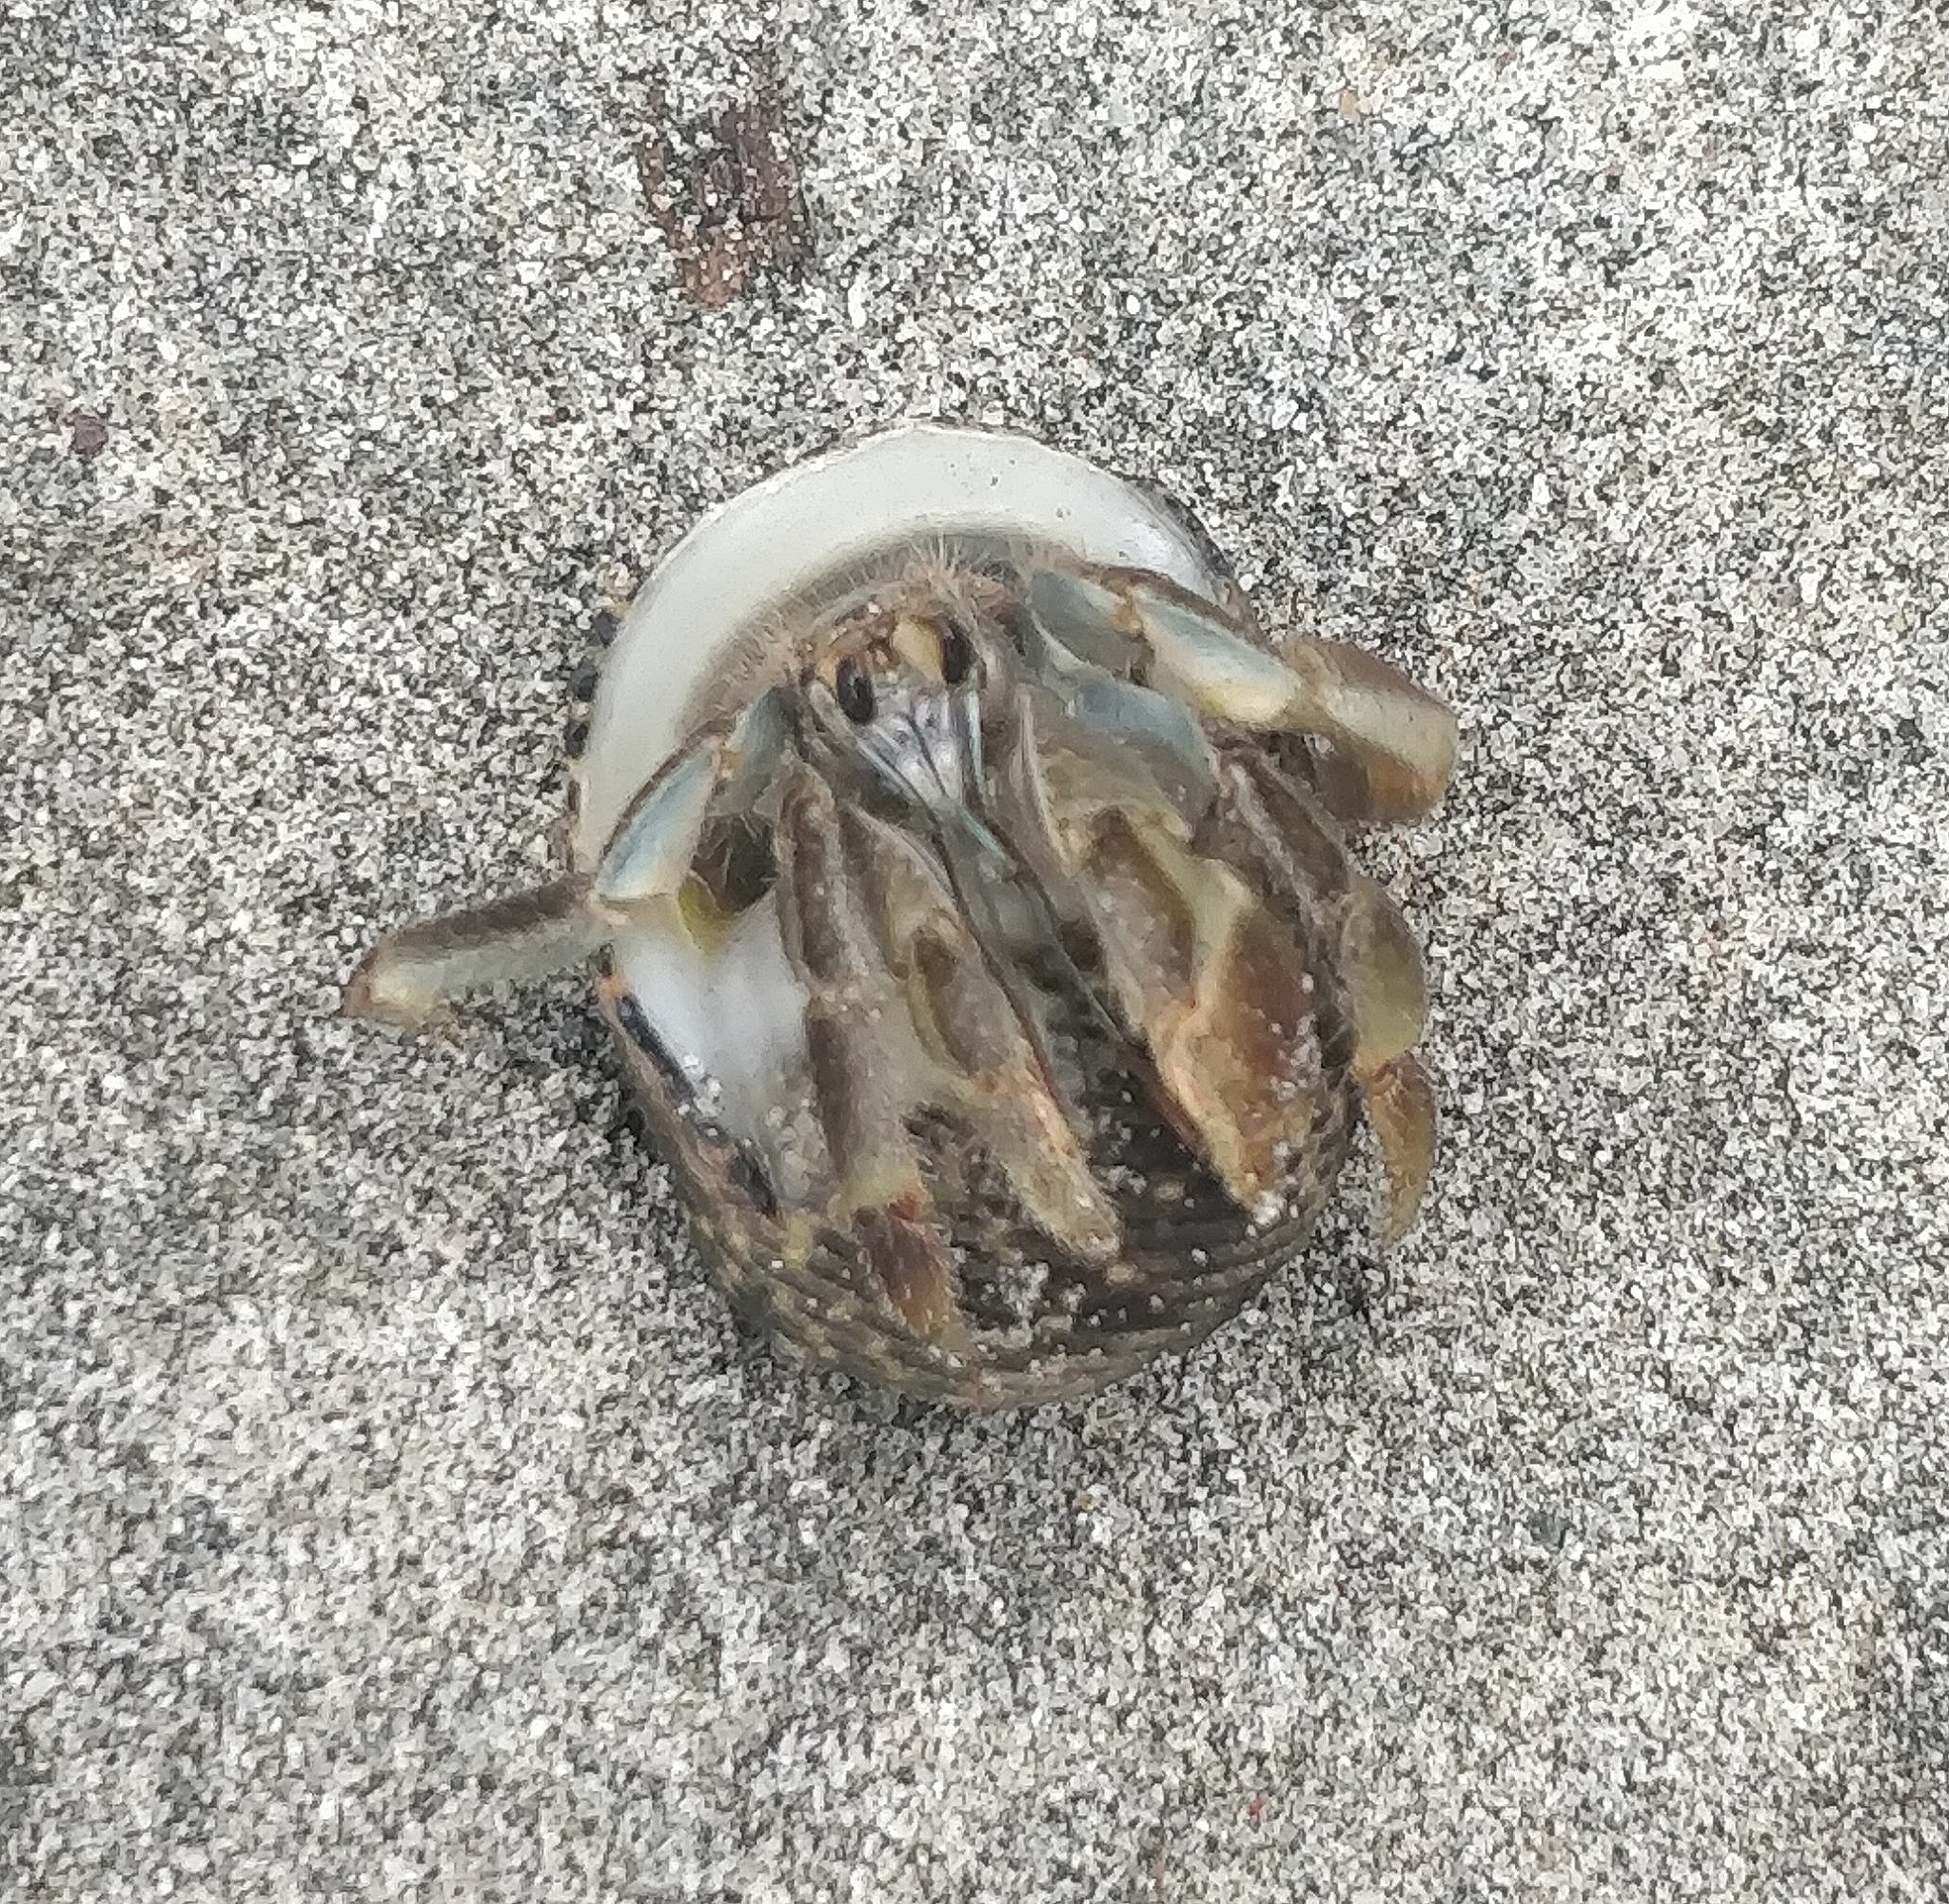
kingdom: Animalia
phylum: Arthropoda
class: Malacostraca
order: Decapoda
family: Coenobitidae
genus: Coenobita
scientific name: Coenobita compressus
